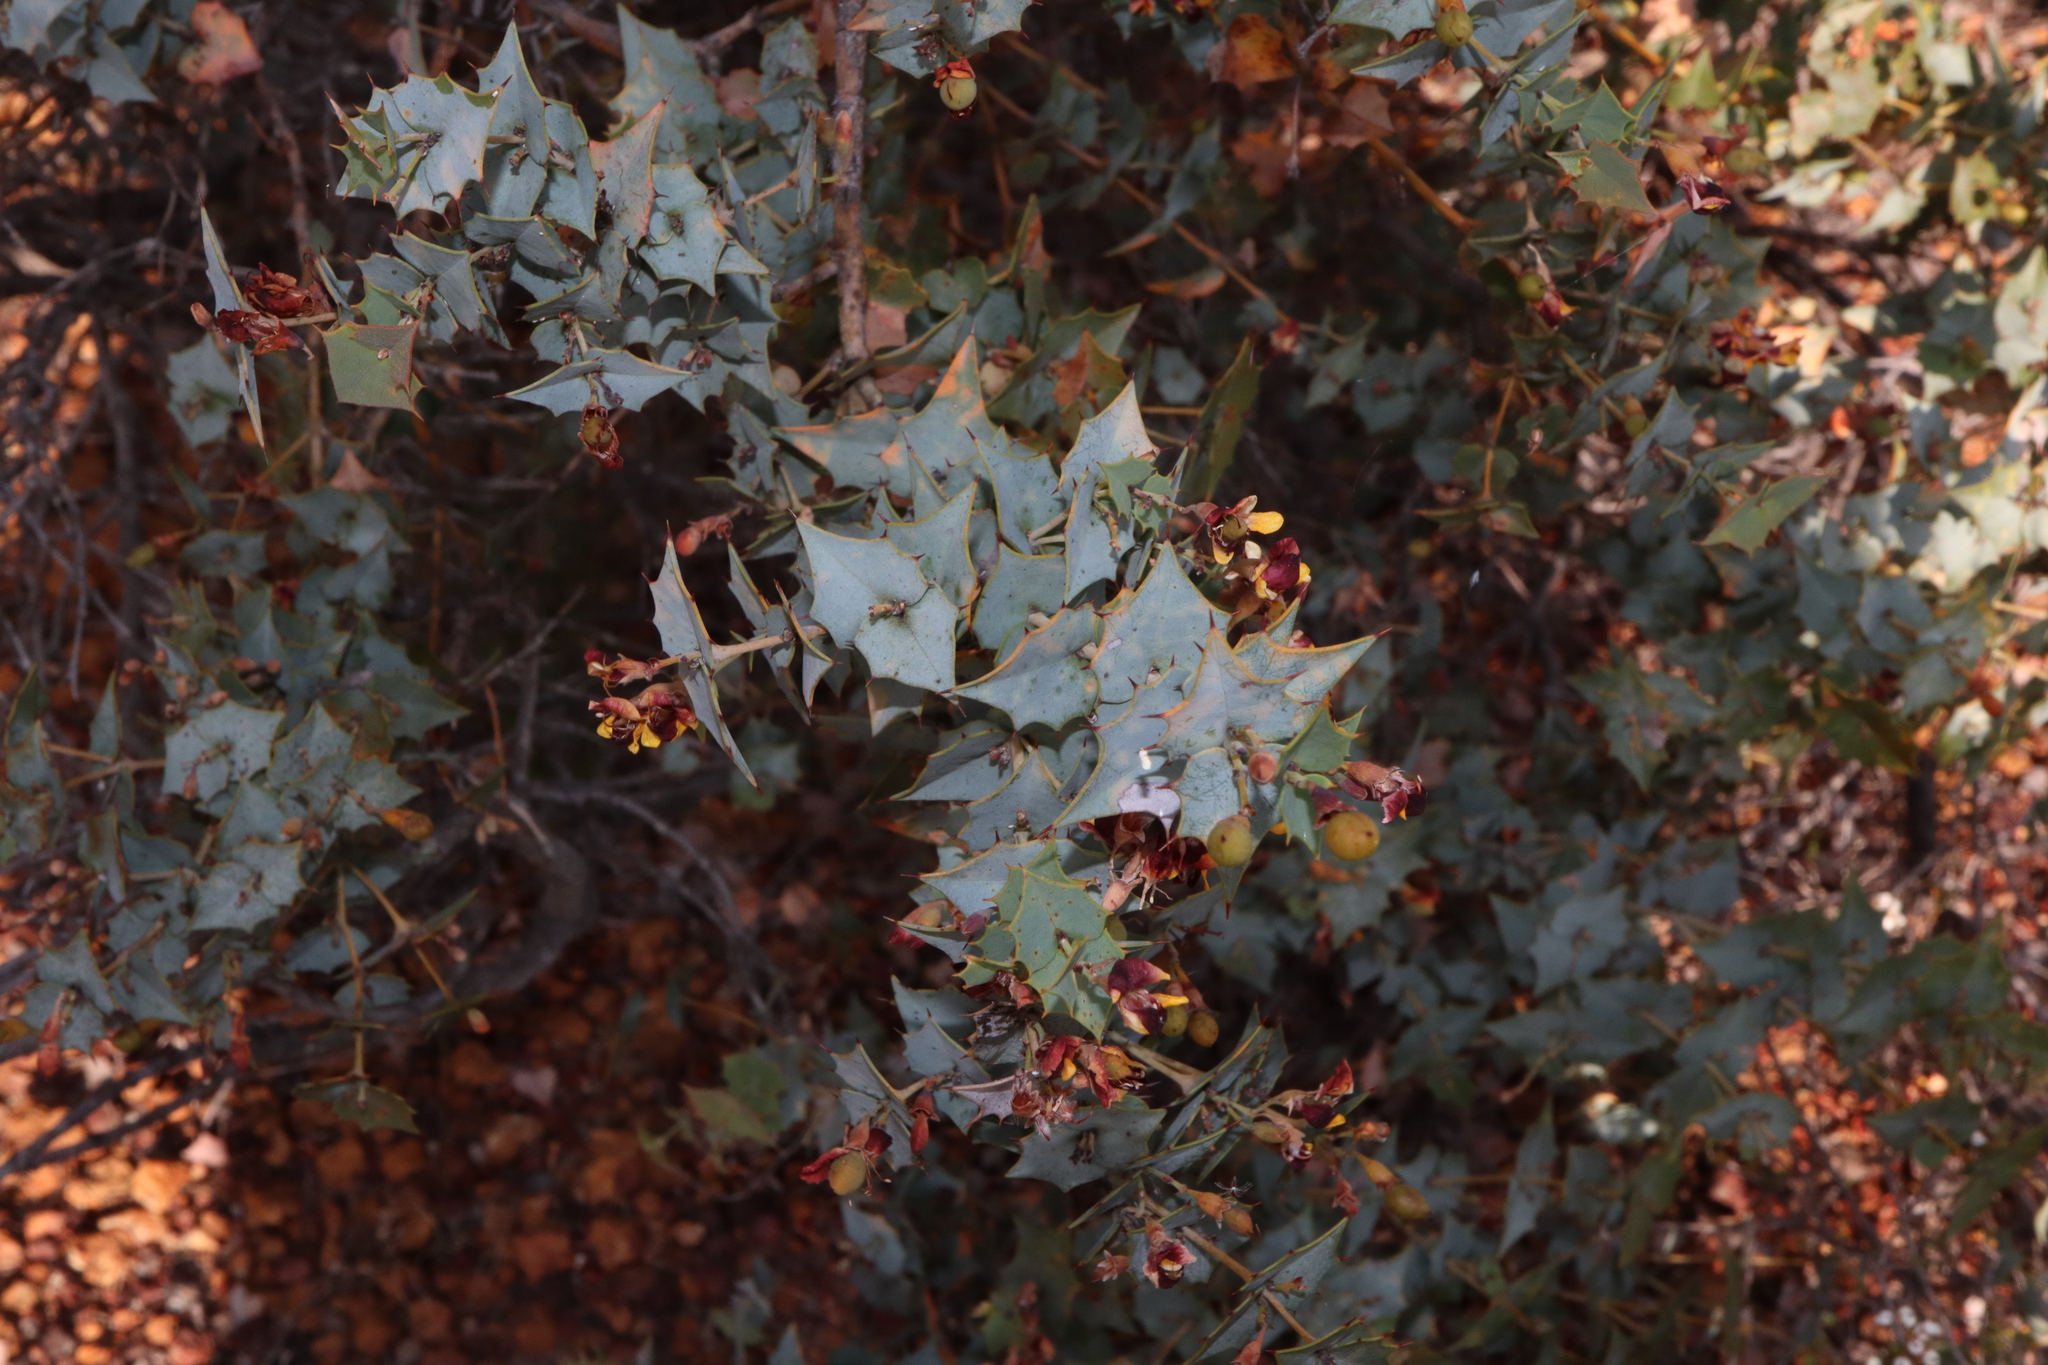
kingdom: Plantae
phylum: Tracheophyta
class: Magnoliopsida
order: Fabales
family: Fabaceae
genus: Gastrolobium
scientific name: Gastrolobium spinosum
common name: Prickly poison
